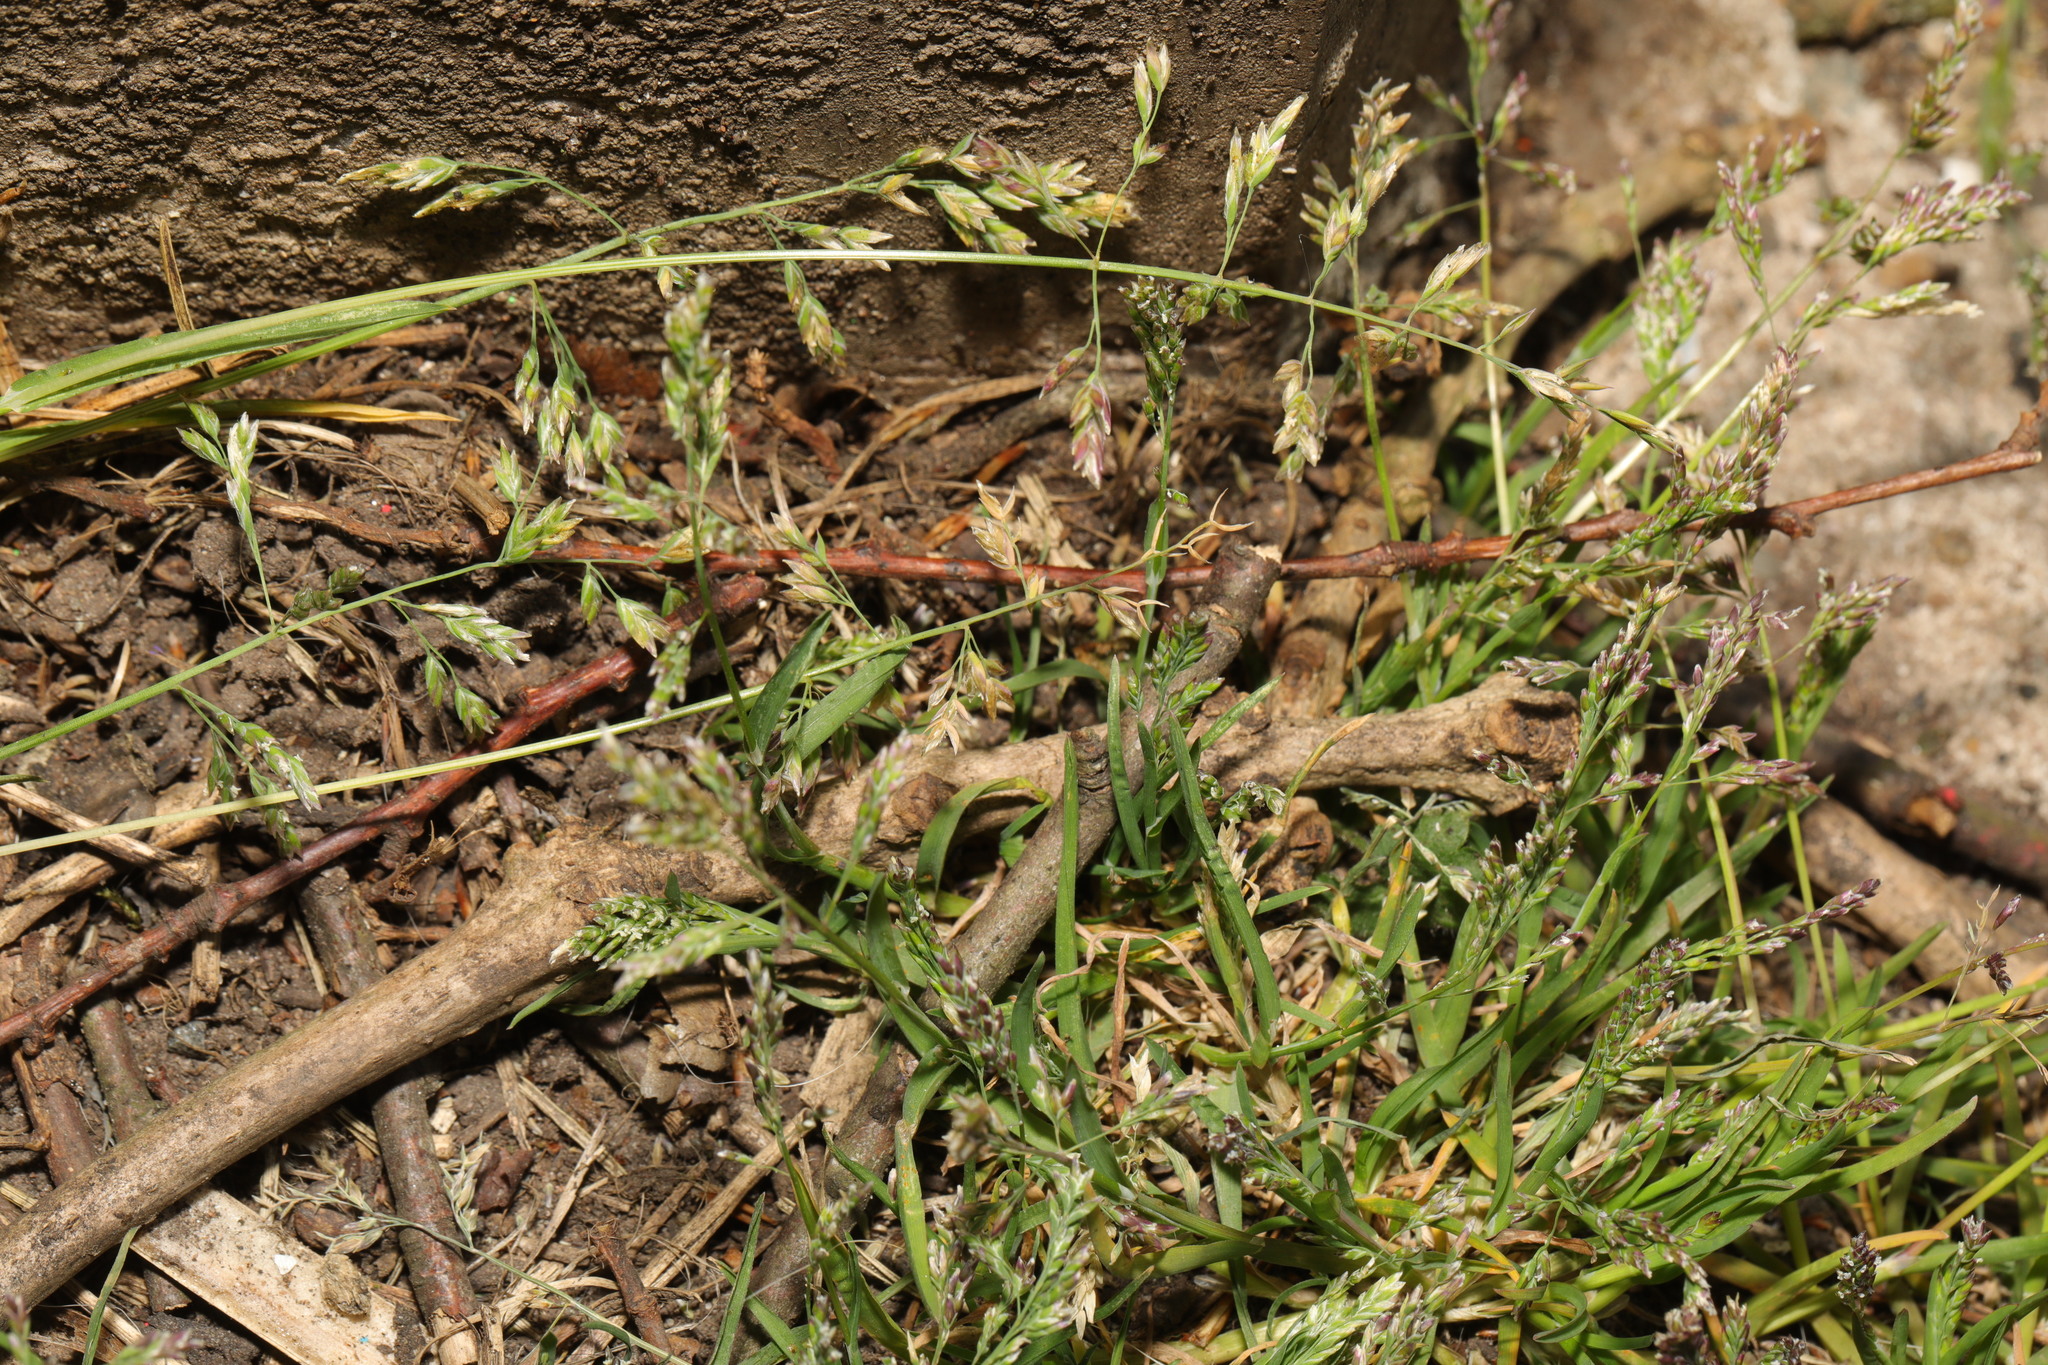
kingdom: Plantae
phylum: Tracheophyta
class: Liliopsida
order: Poales
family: Poaceae
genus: Poa
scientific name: Poa annua
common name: Annual bluegrass
